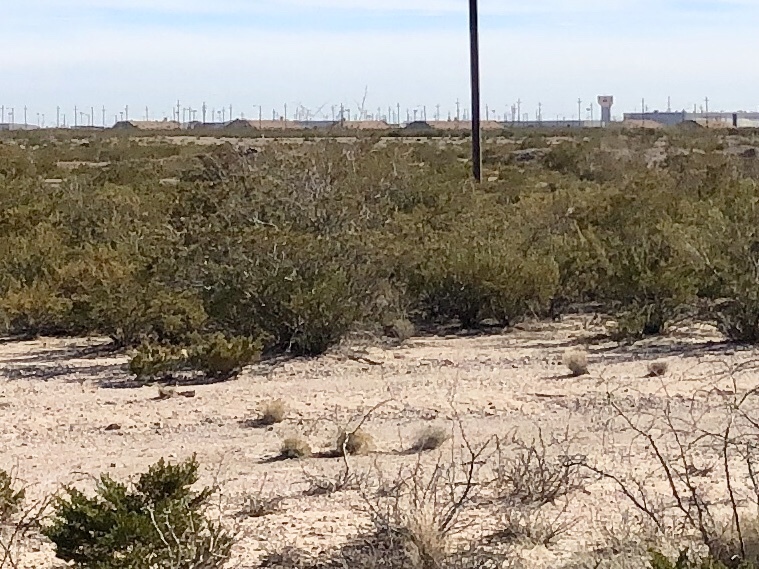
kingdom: Plantae
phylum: Tracheophyta
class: Magnoliopsida
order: Zygophyllales
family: Zygophyllaceae
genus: Larrea
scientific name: Larrea tridentata
